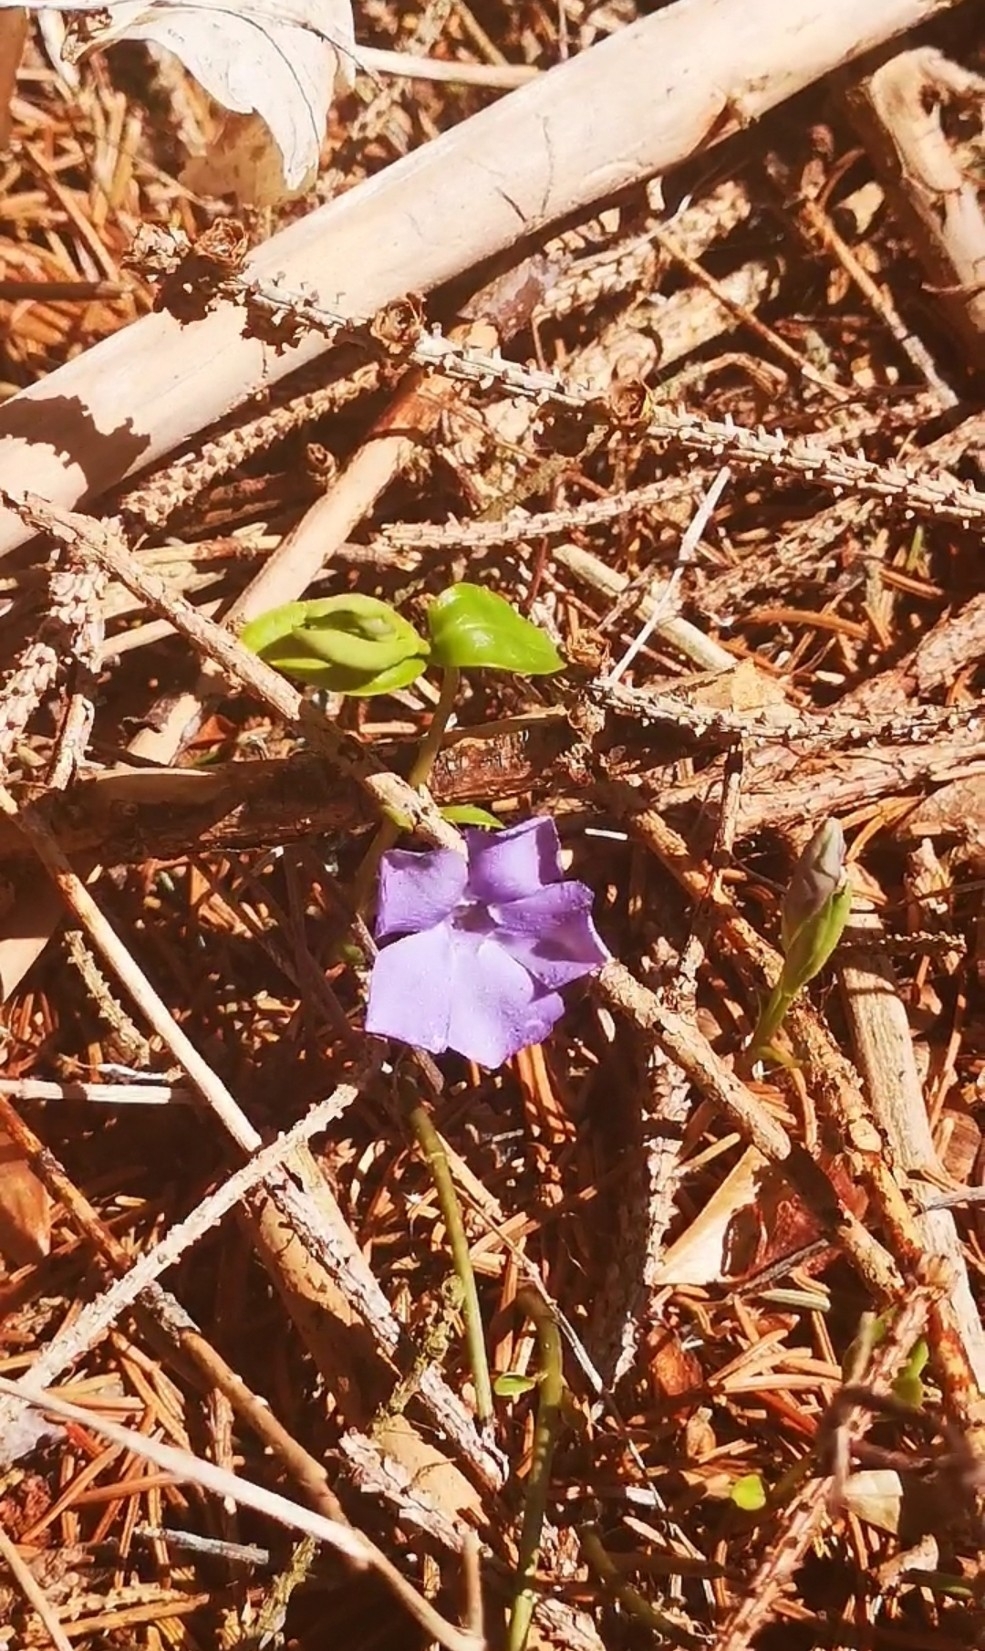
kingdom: Plantae
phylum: Tracheophyta
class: Magnoliopsida
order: Gentianales
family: Apocynaceae
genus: Vinca
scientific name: Vinca minor
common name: Lesser periwinkle
